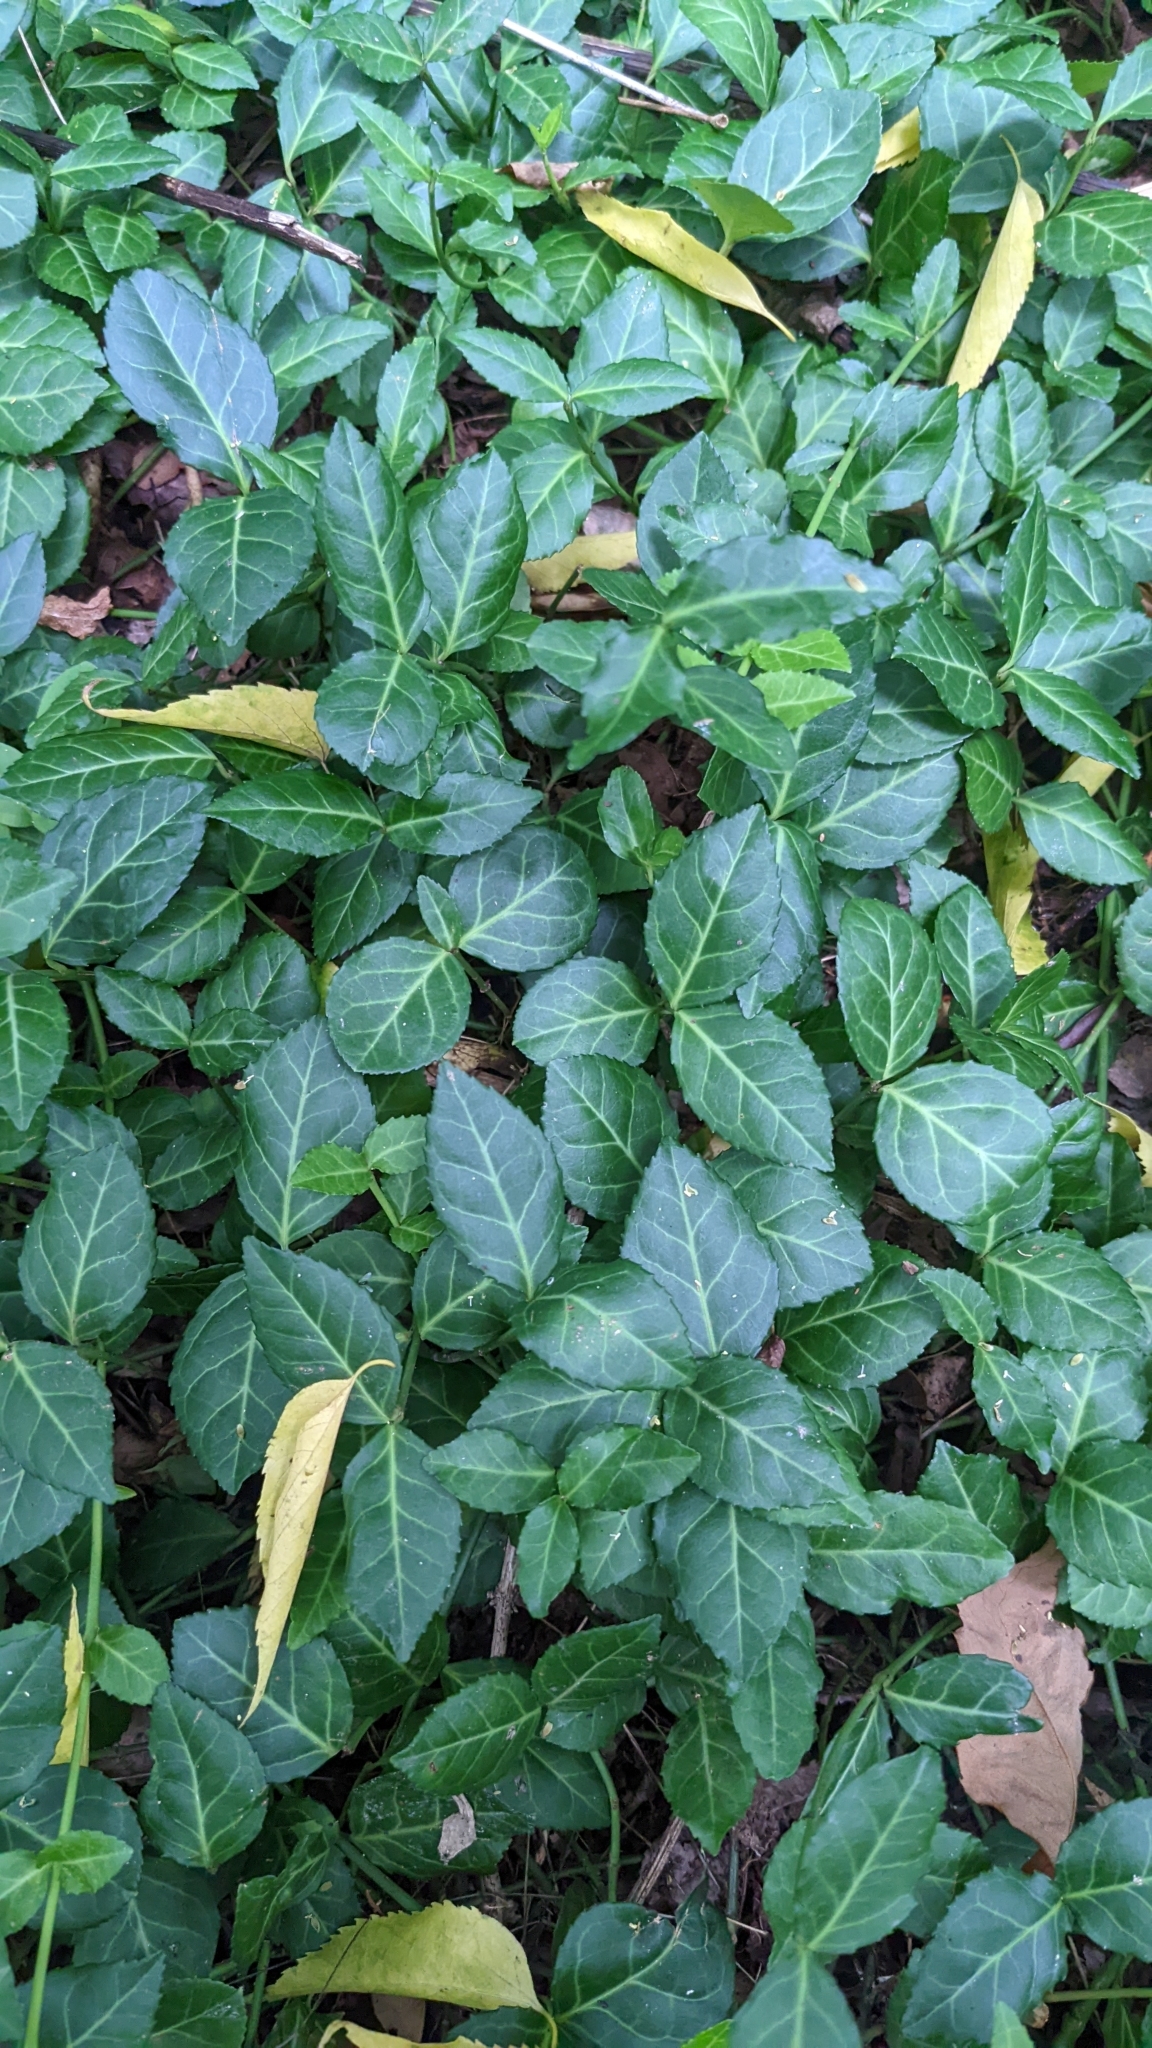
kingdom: Plantae
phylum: Tracheophyta
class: Magnoliopsida
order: Celastrales
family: Celastraceae
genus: Euonymus
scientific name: Euonymus fortunei
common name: Climbing euonymus
